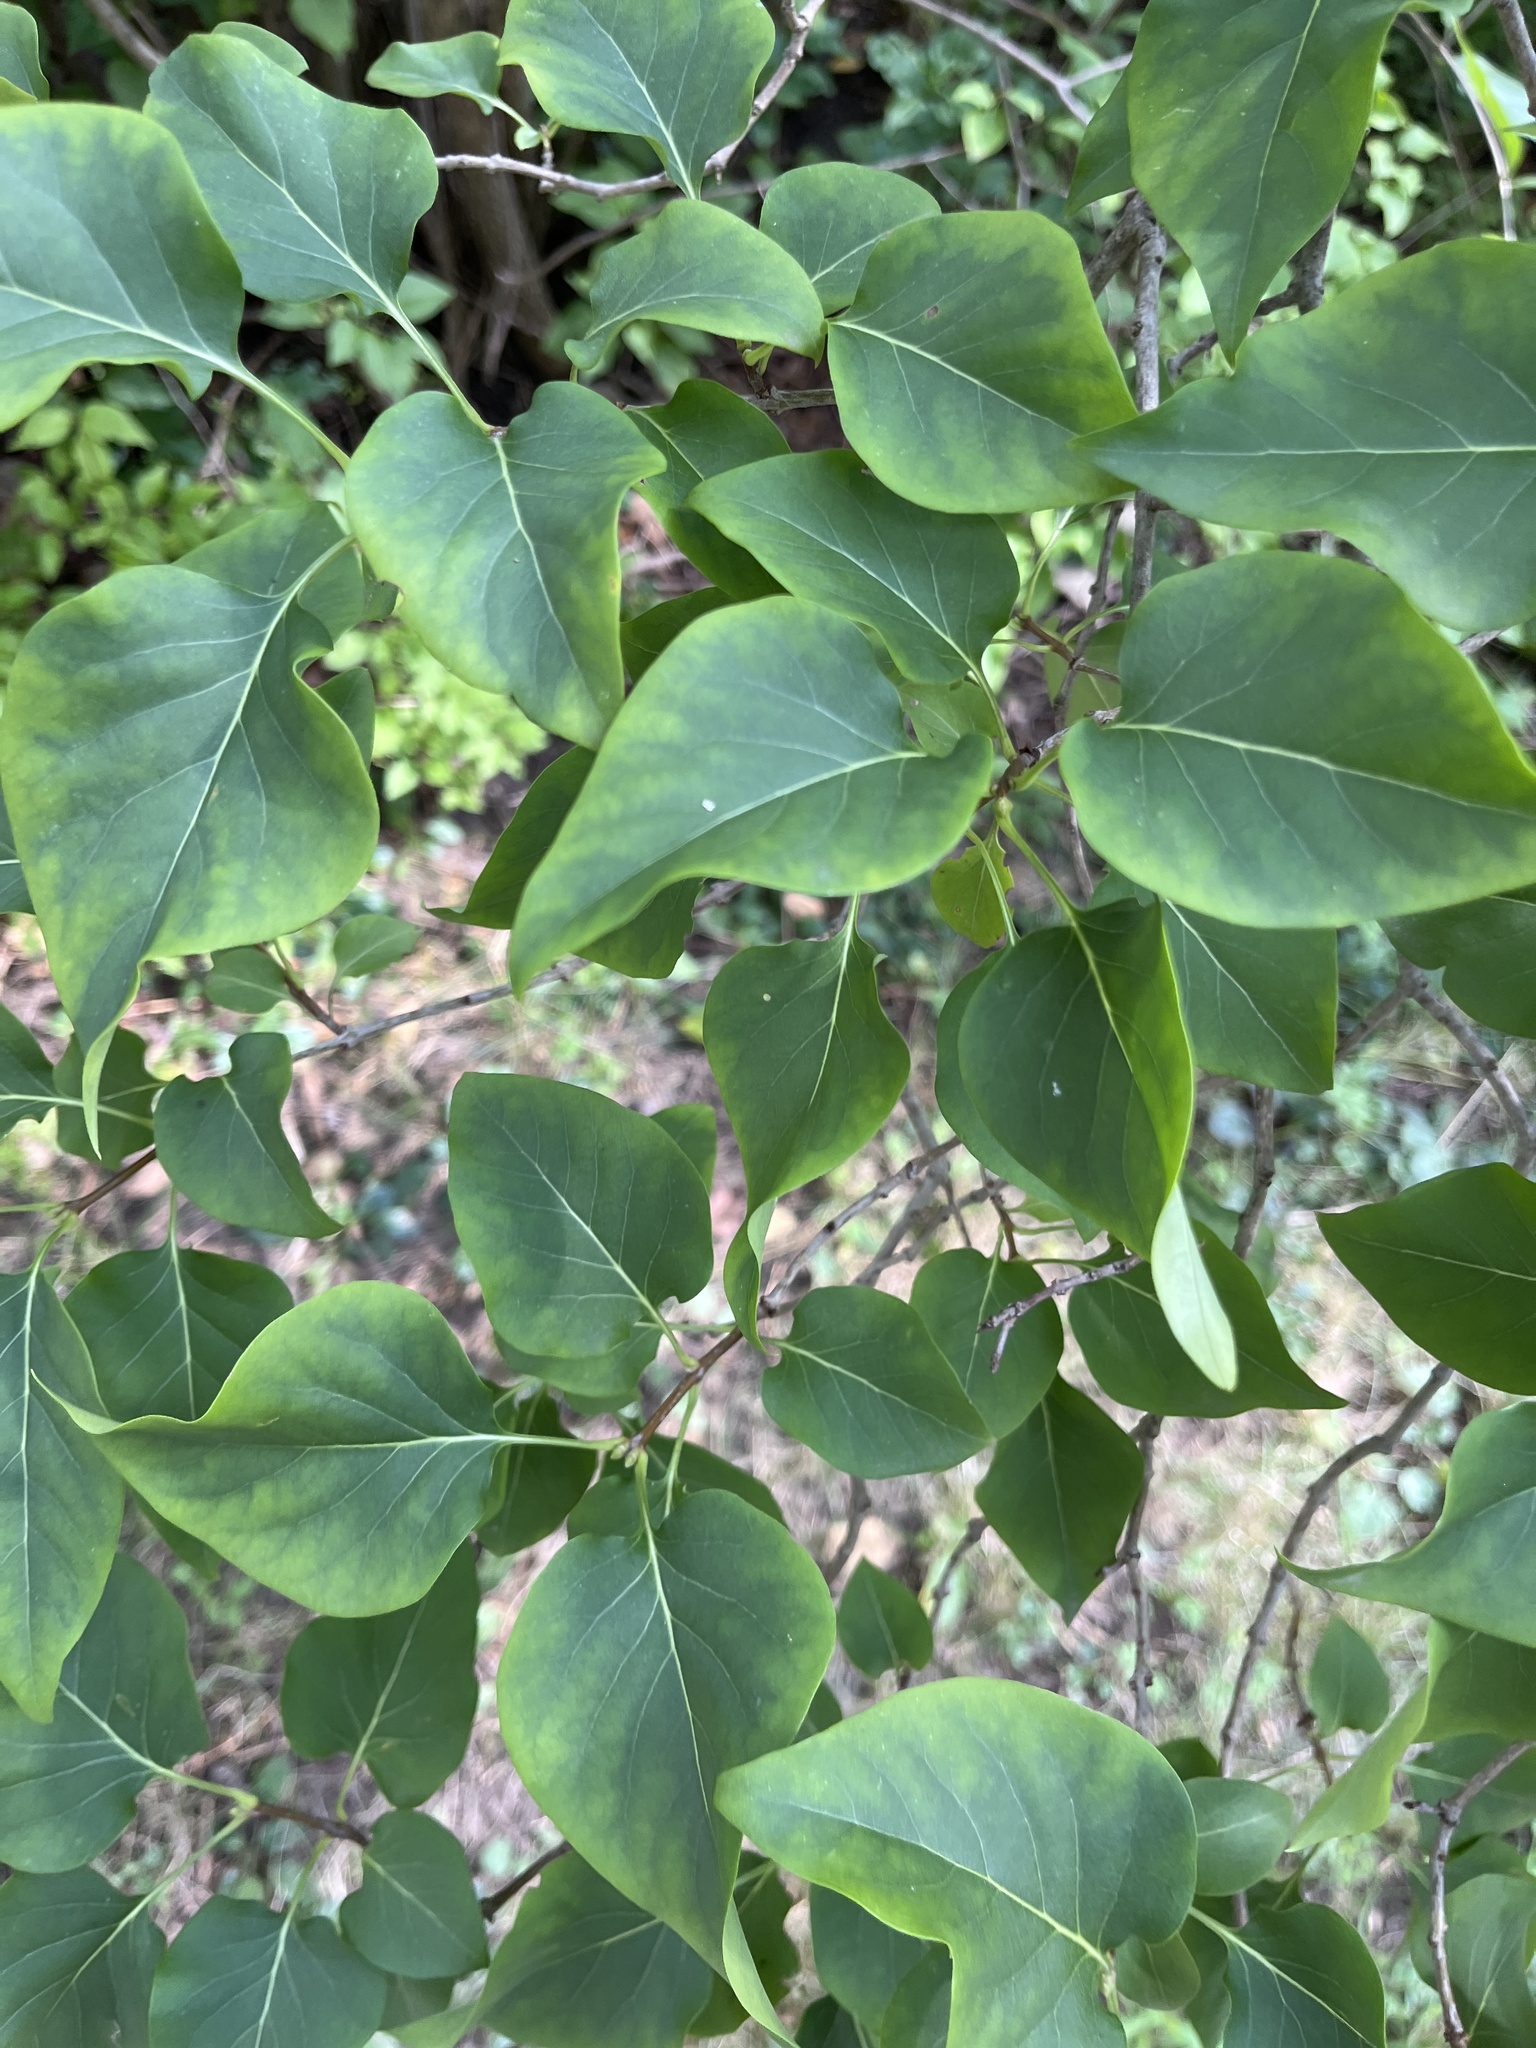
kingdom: Plantae
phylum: Tracheophyta
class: Magnoliopsida
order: Lamiales
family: Oleaceae
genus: Syringa
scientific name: Syringa vulgaris
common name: Common lilac
